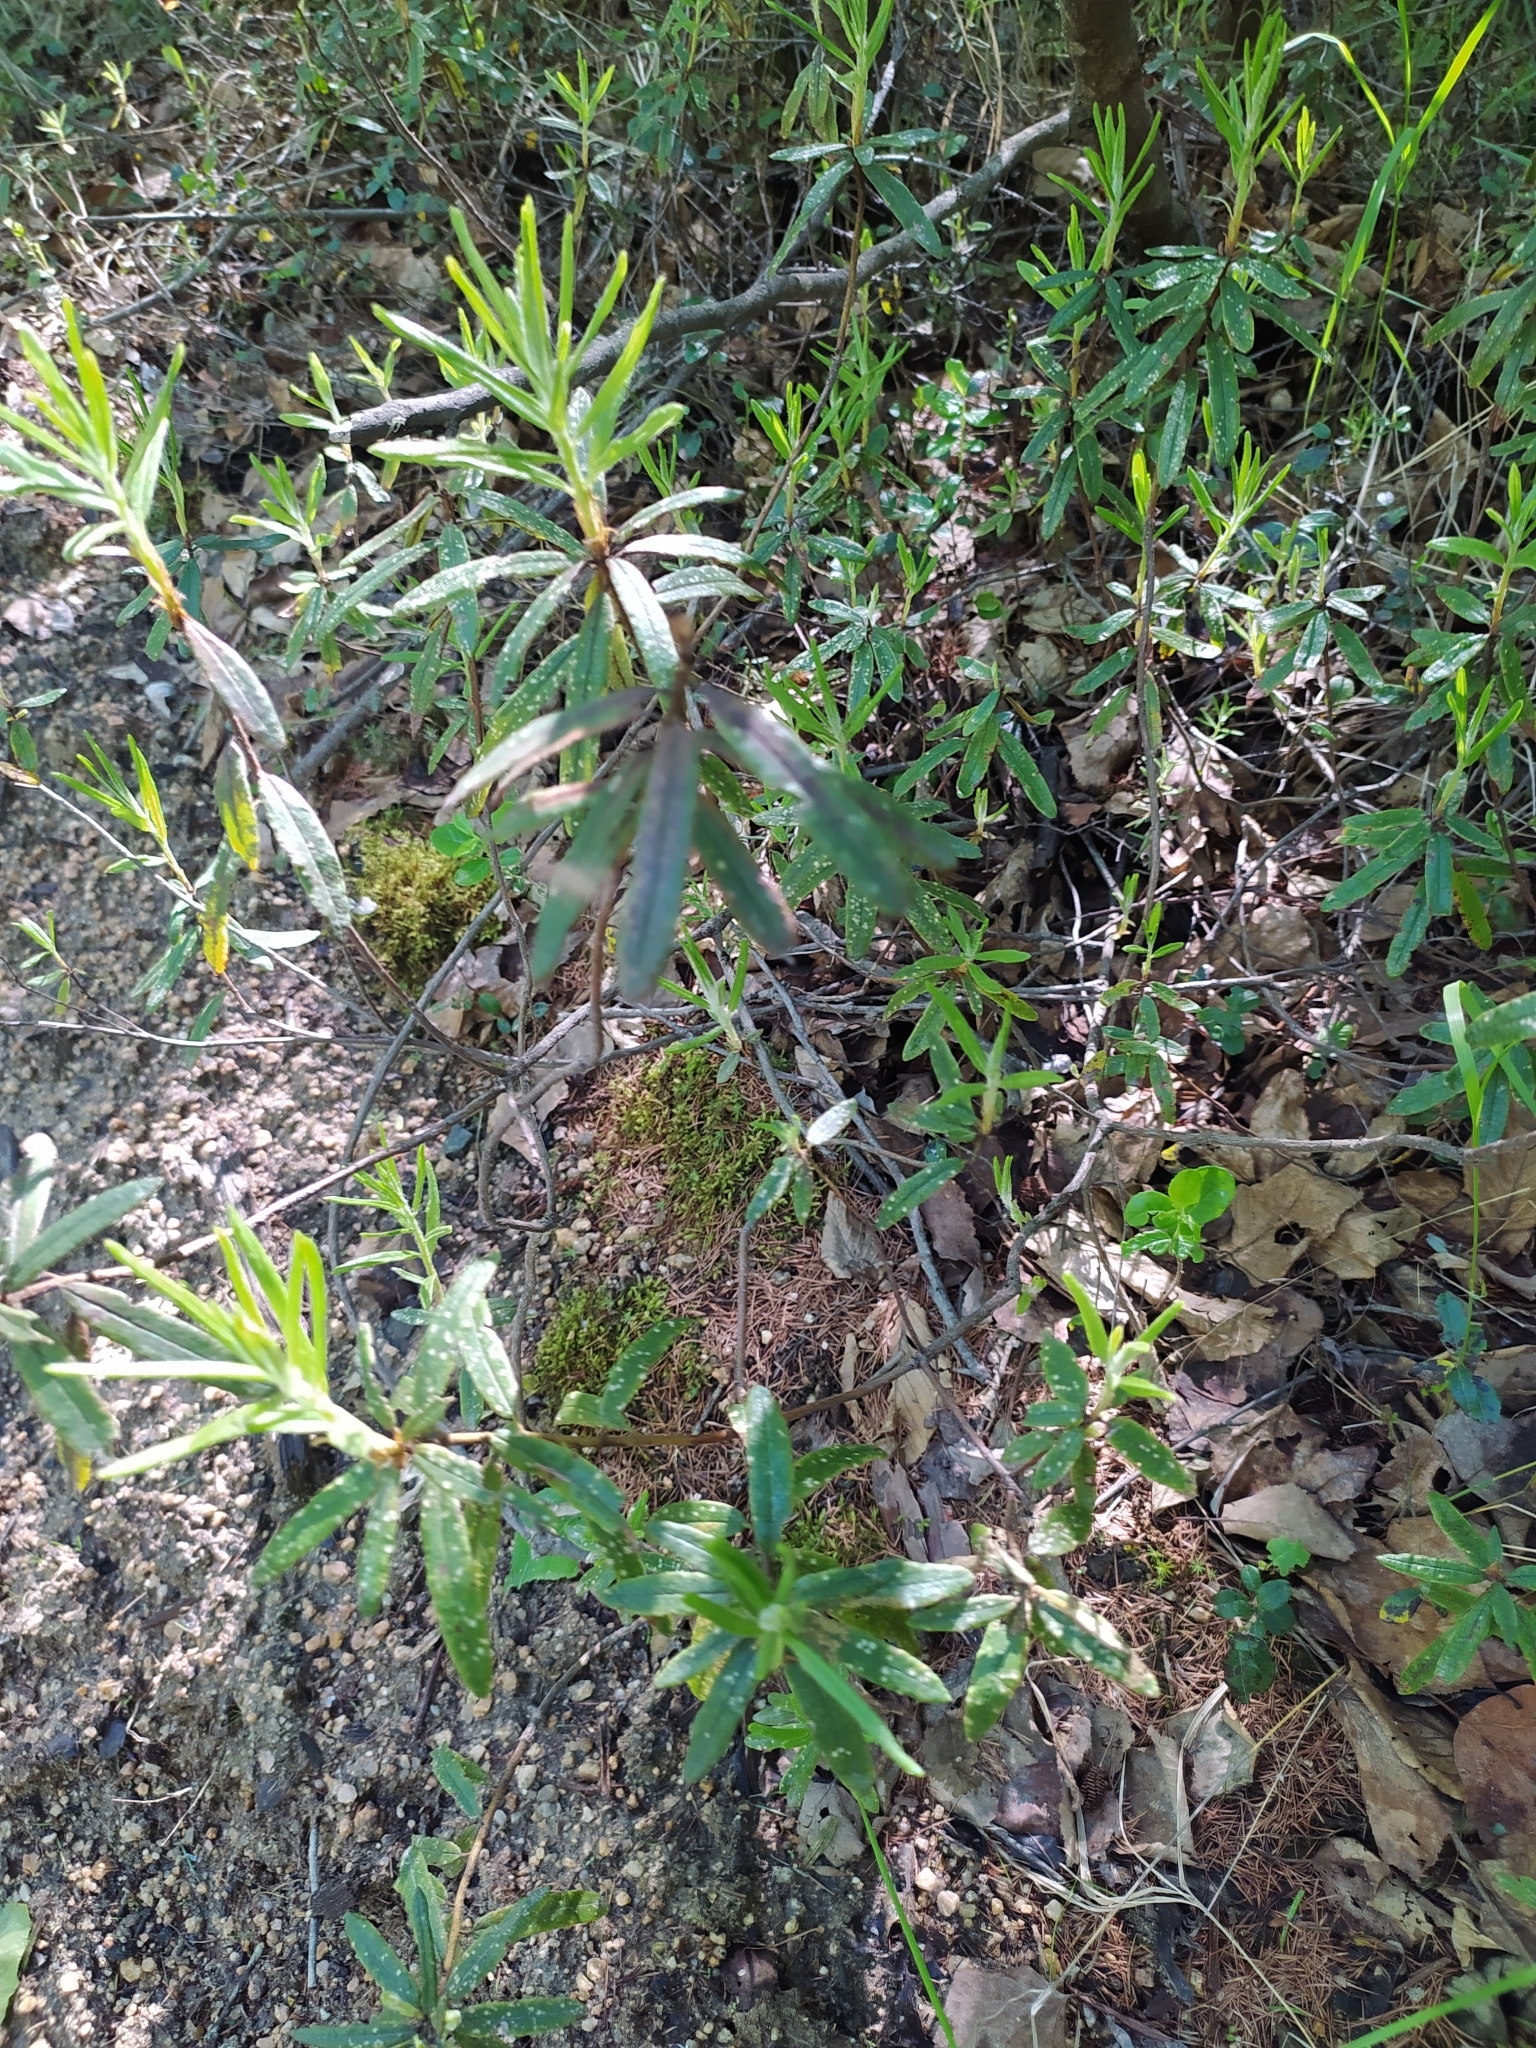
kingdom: Plantae
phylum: Tracheophyta
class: Magnoliopsida
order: Ericales
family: Ericaceae
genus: Rhododendron
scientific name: Rhododendron tomentosum
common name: Marsh labrador tea
